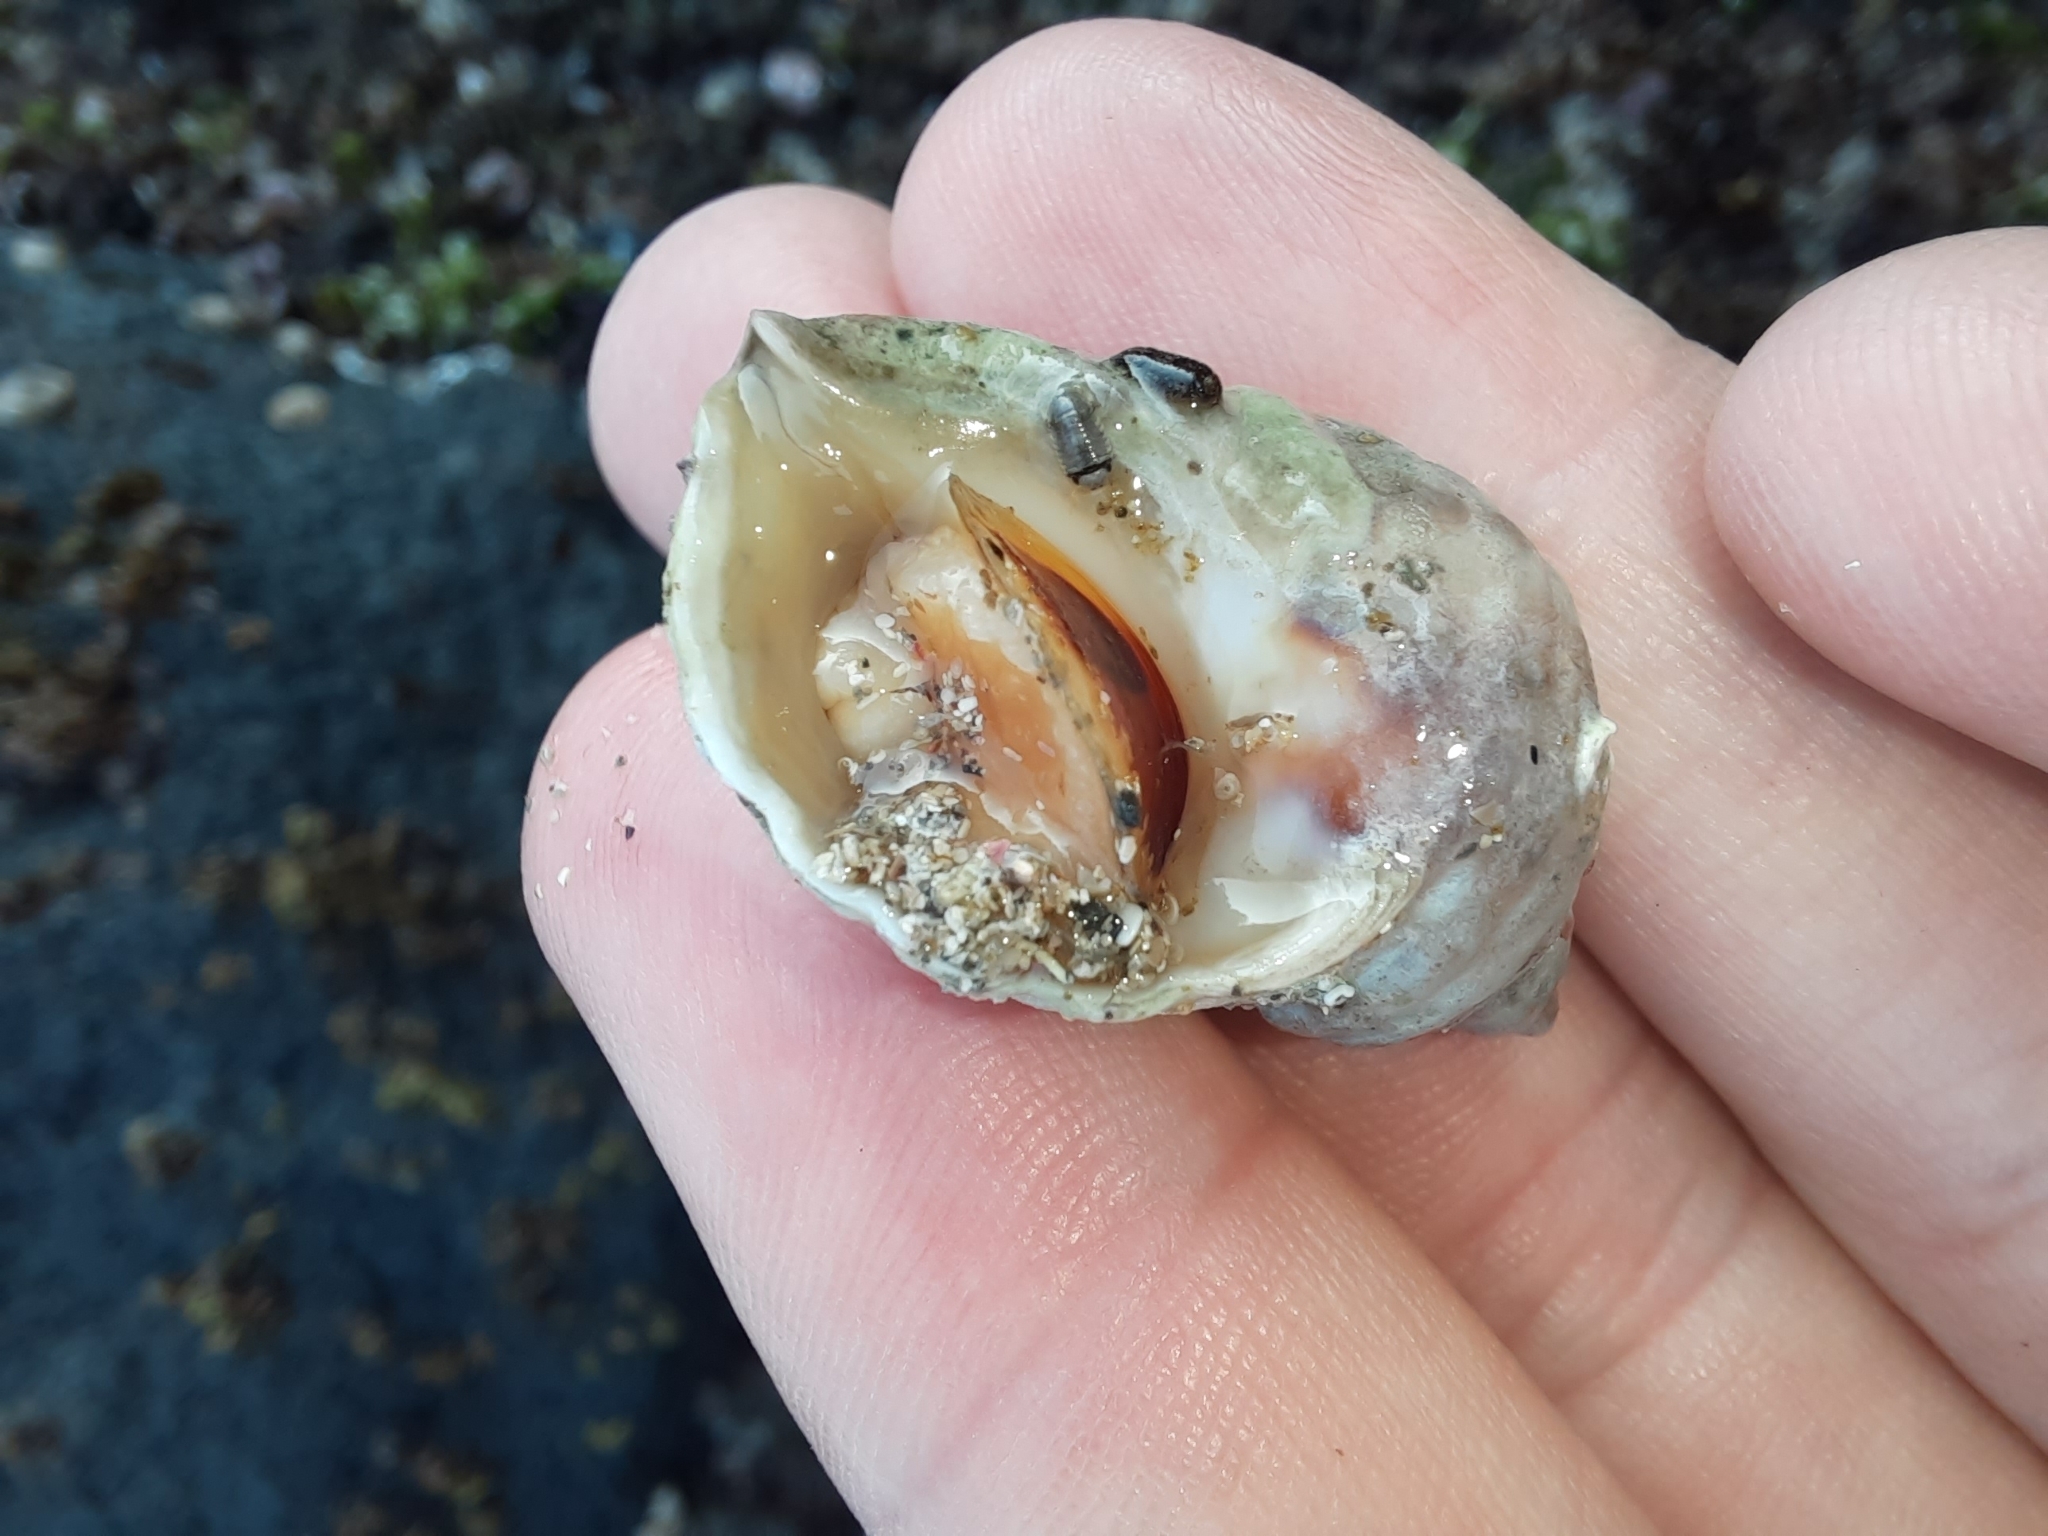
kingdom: Animalia
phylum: Mollusca
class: Gastropoda
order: Neogastropoda
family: Muricidae
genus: Haustrum
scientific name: Haustrum lacunosum
